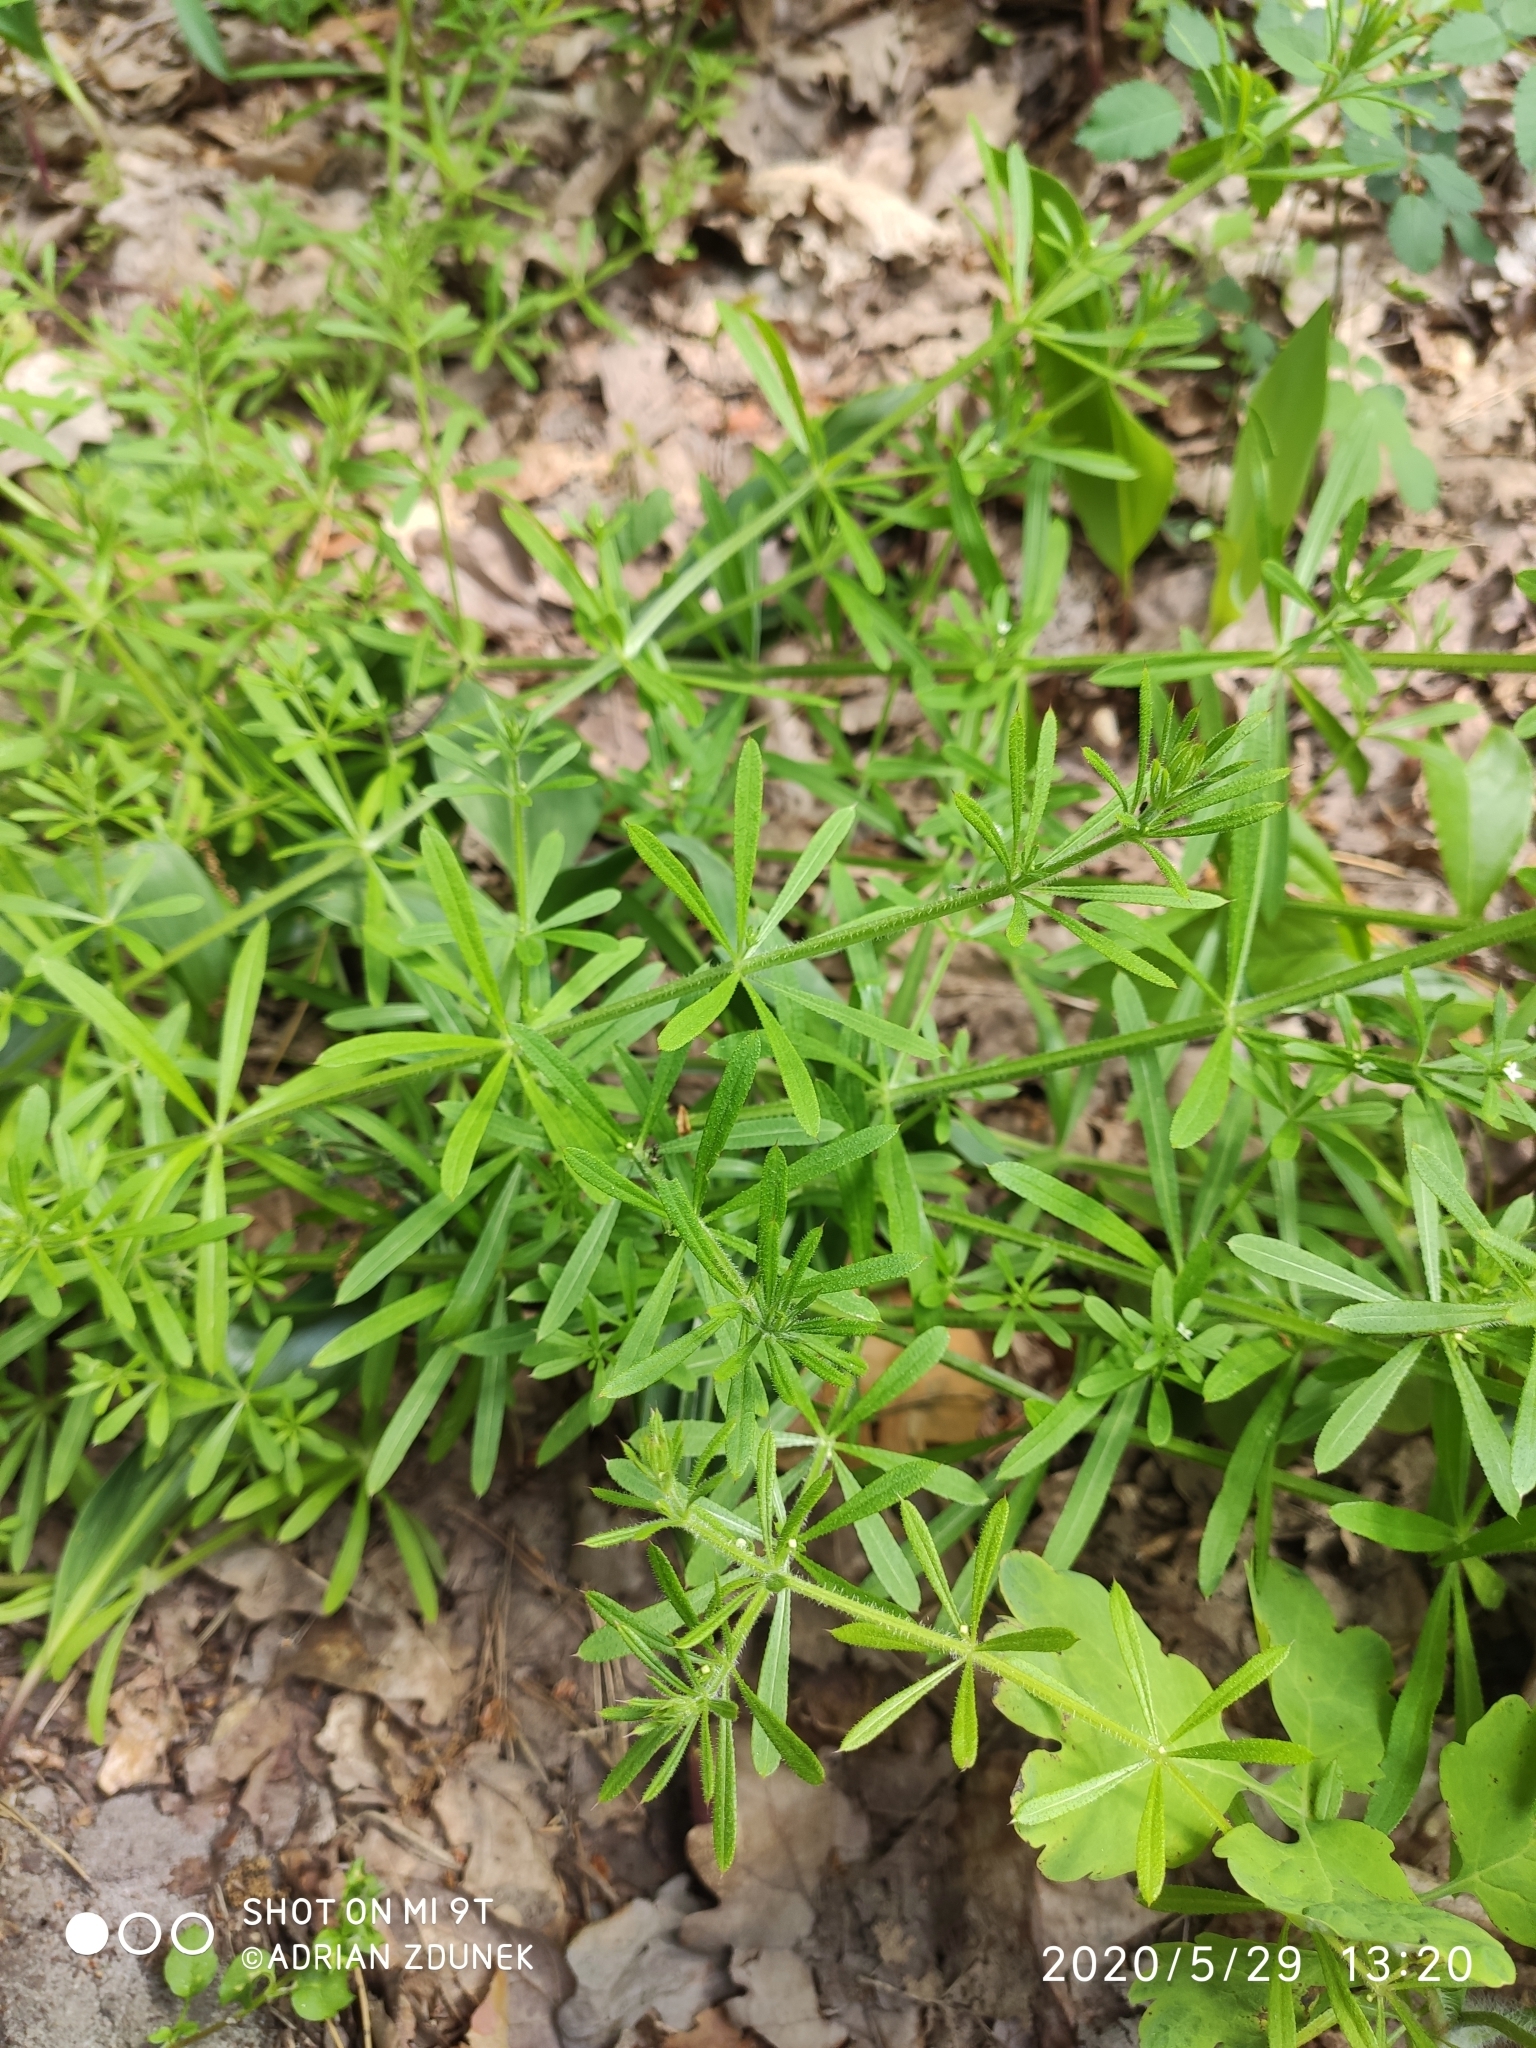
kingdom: Plantae
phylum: Tracheophyta
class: Magnoliopsida
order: Gentianales
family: Rubiaceae
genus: Galium
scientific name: Galium aparine
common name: Cleavers
